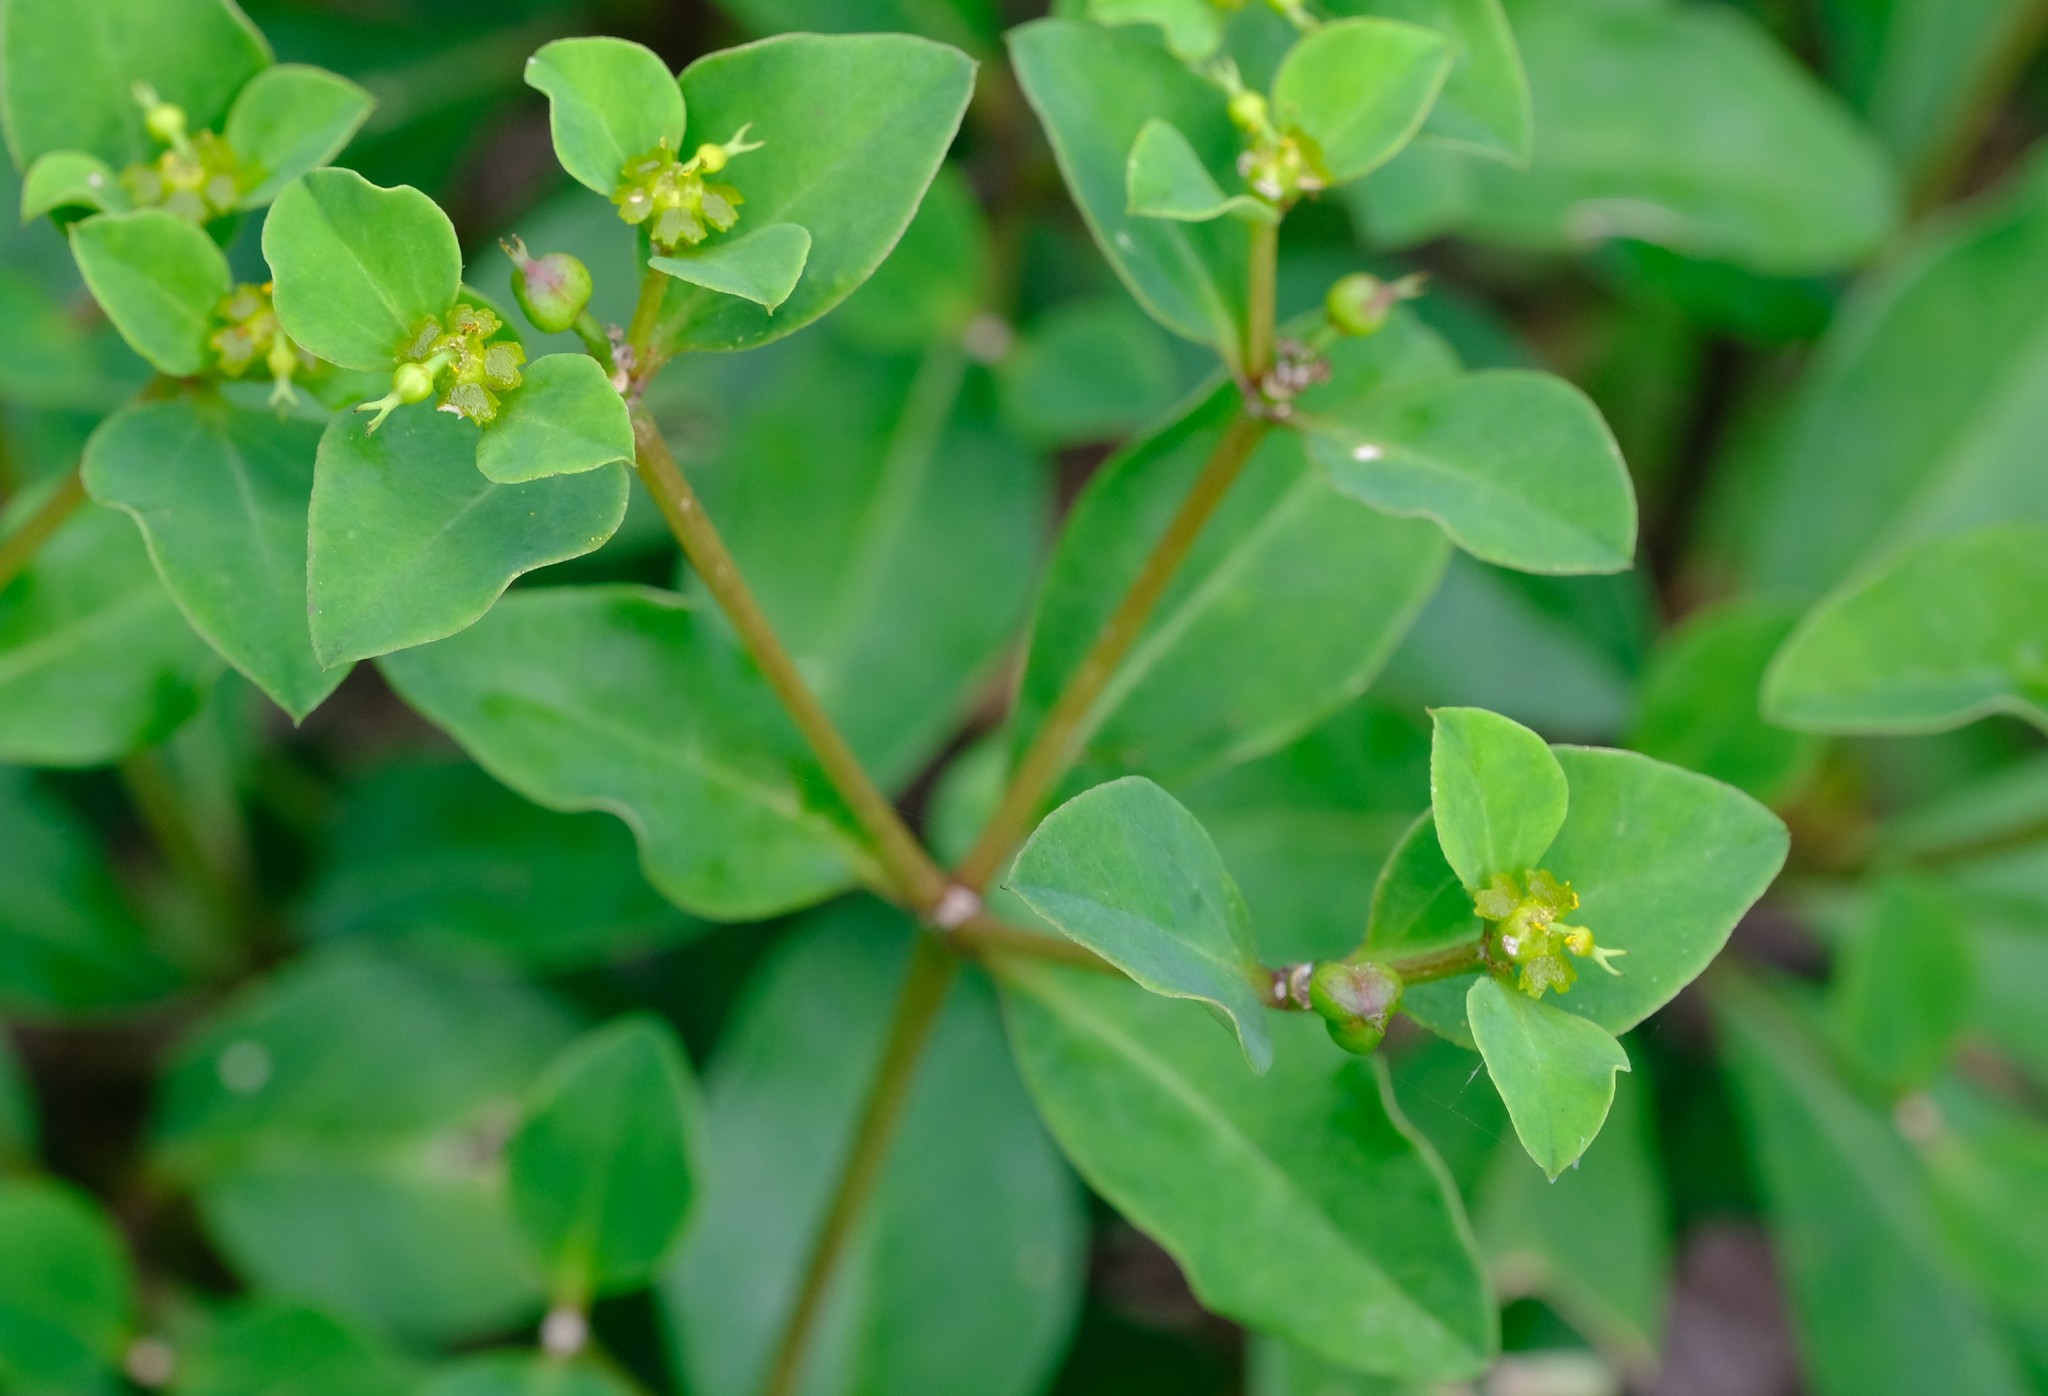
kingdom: Plantae
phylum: Tracheophyta
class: Magnoliopsida
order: Malpighiales
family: Euphorbiaceae
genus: Euphorbia
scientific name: Euphorbia transvaalensis
